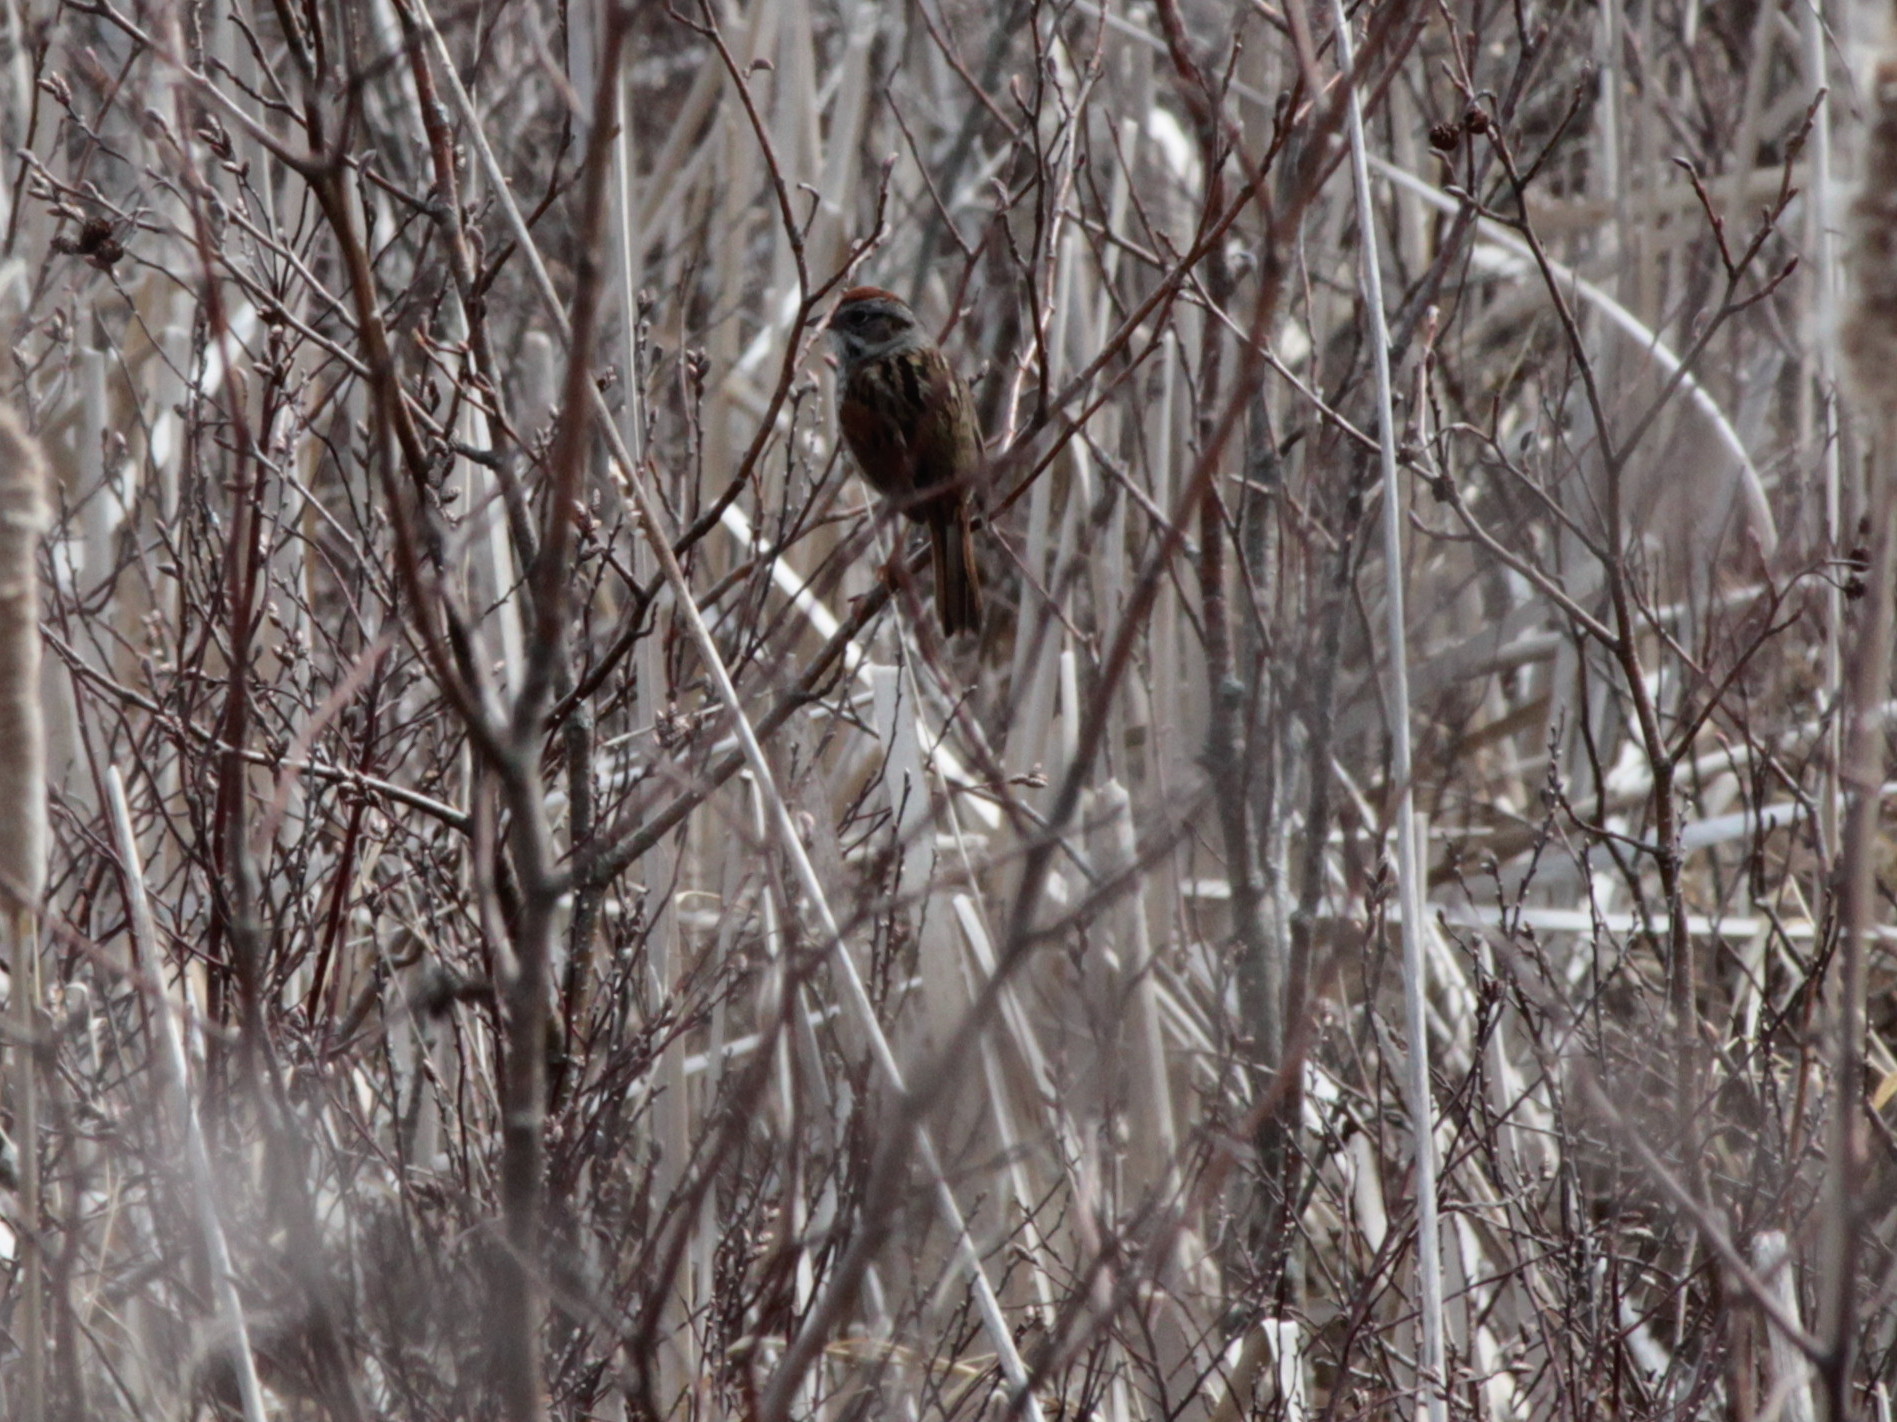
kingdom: Animalia
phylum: Chordata
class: Aves
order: Passeriformes
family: Passerellidae
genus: Melospiza
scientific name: Melospiza georgiana
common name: Swamp sparrow
